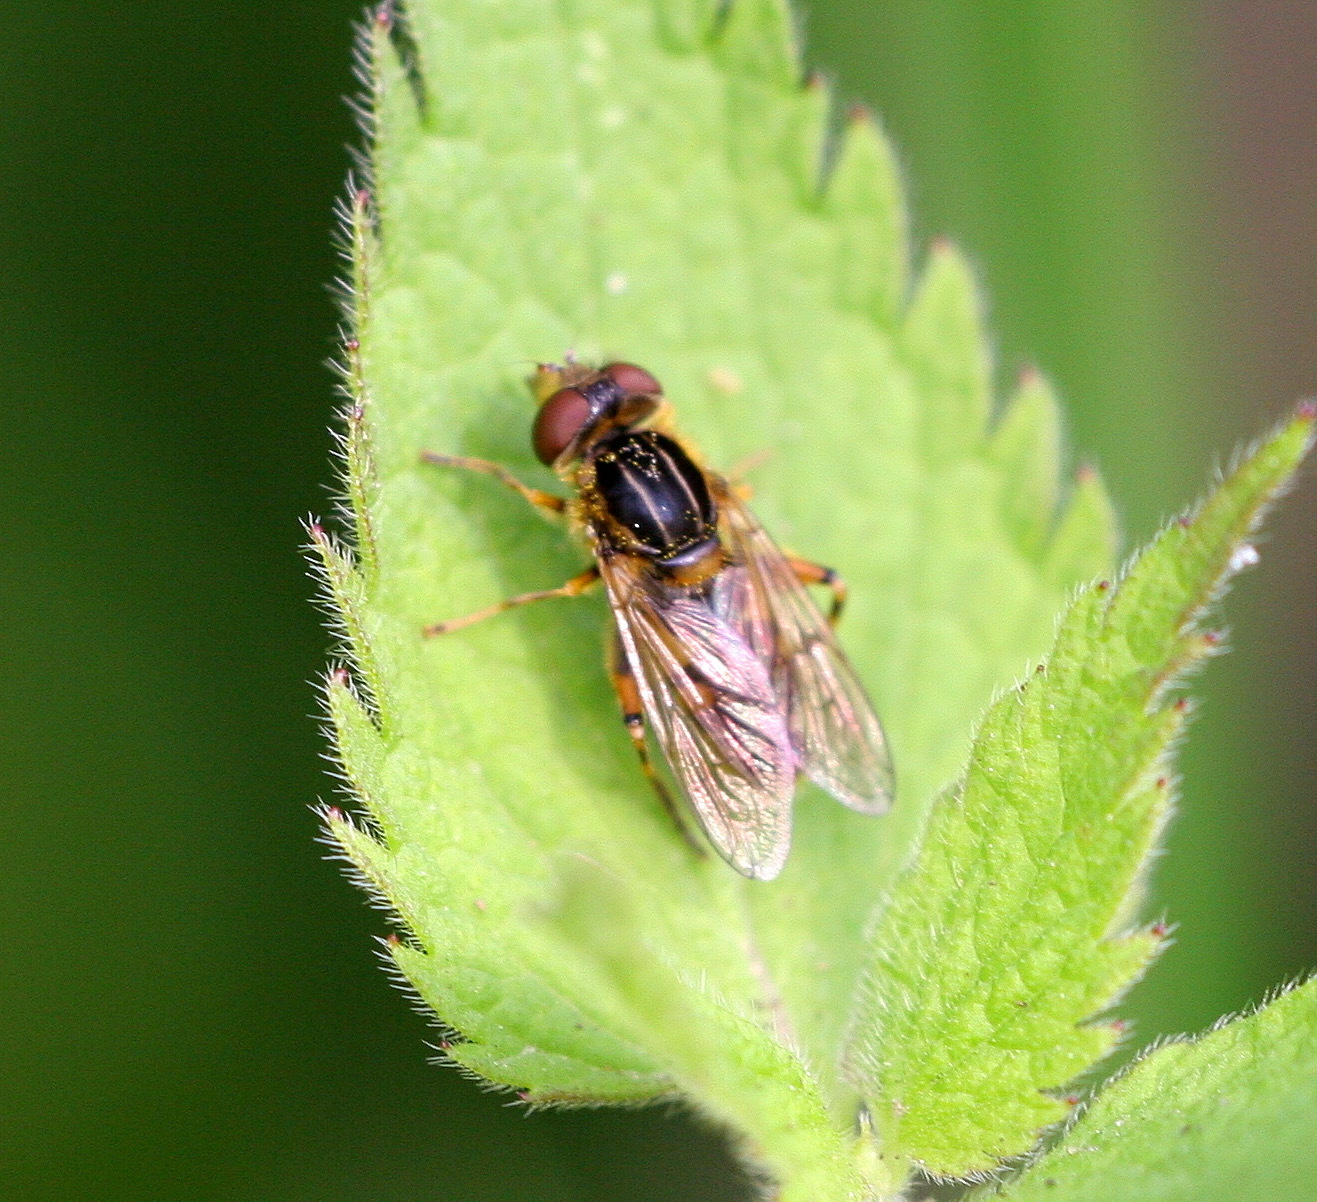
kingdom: Animalia
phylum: Arthropoda
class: Insecta
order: Diptera
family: Syrphidae
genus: Eurimyia
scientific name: Eurimyia lineatus
